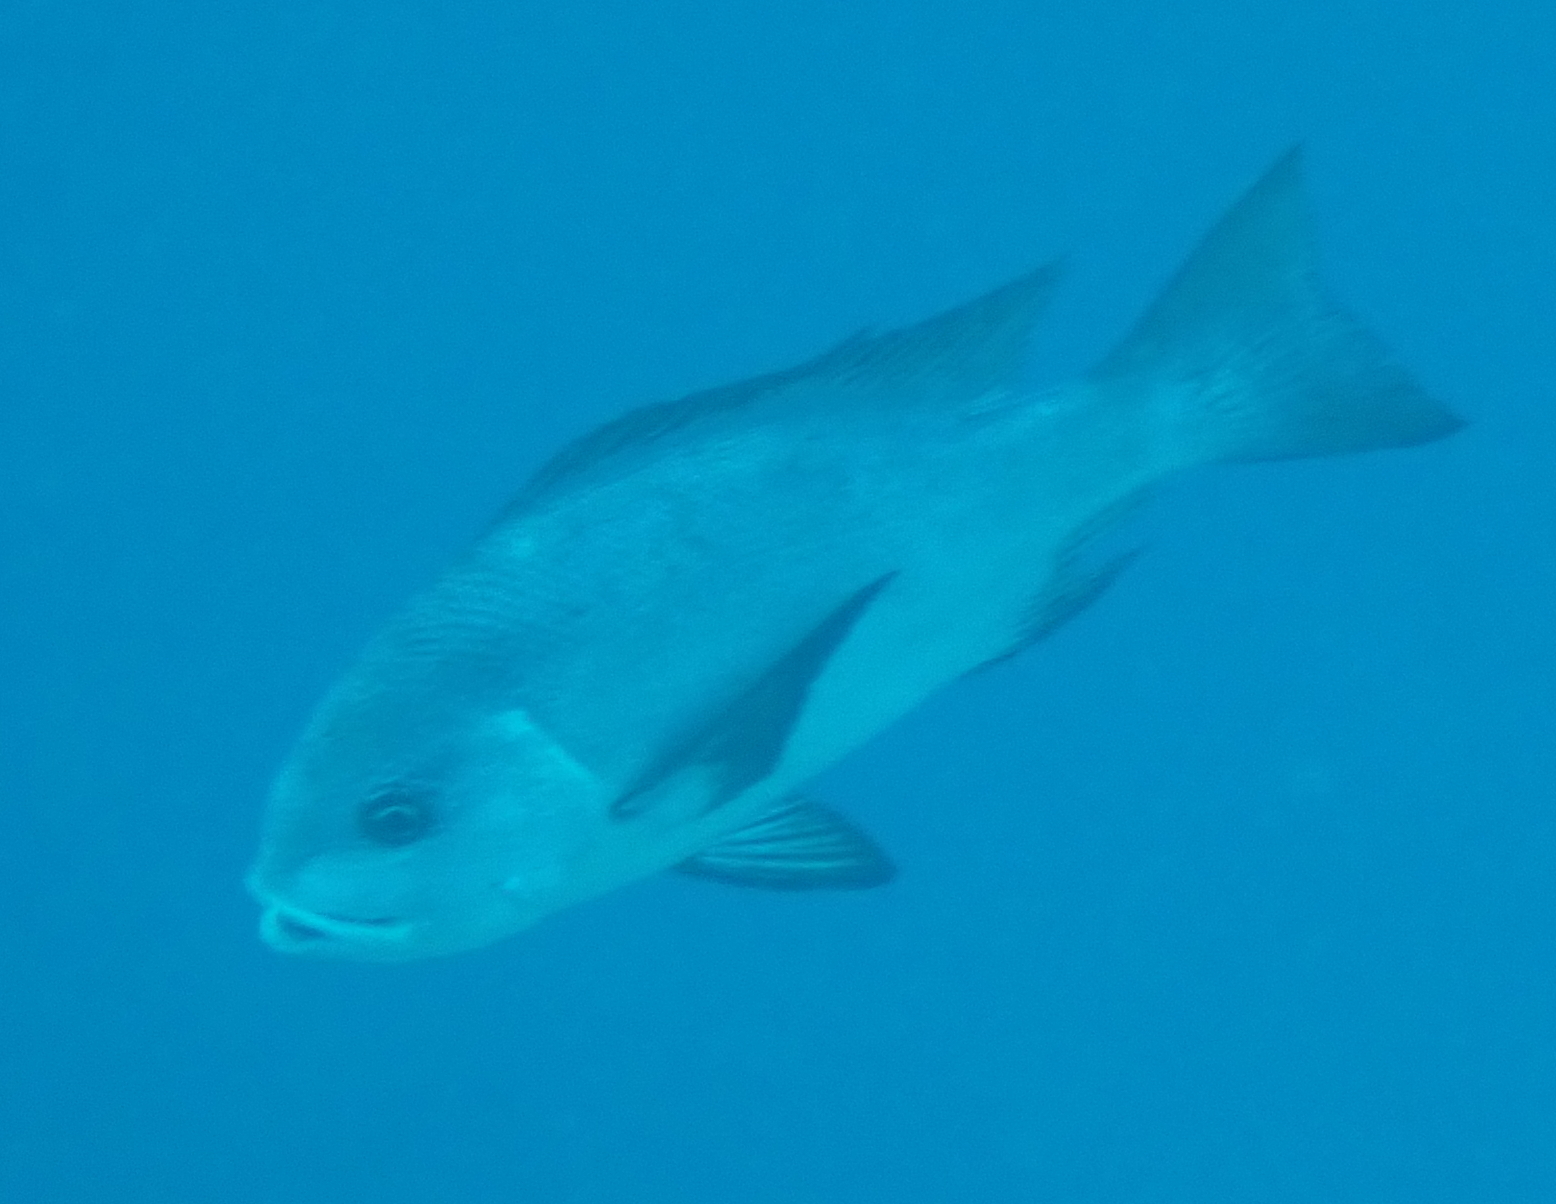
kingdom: Animalia
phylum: Chordata
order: Perciformes
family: Lutjanidae
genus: Macolor
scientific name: Macolor niger
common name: Black snapper
